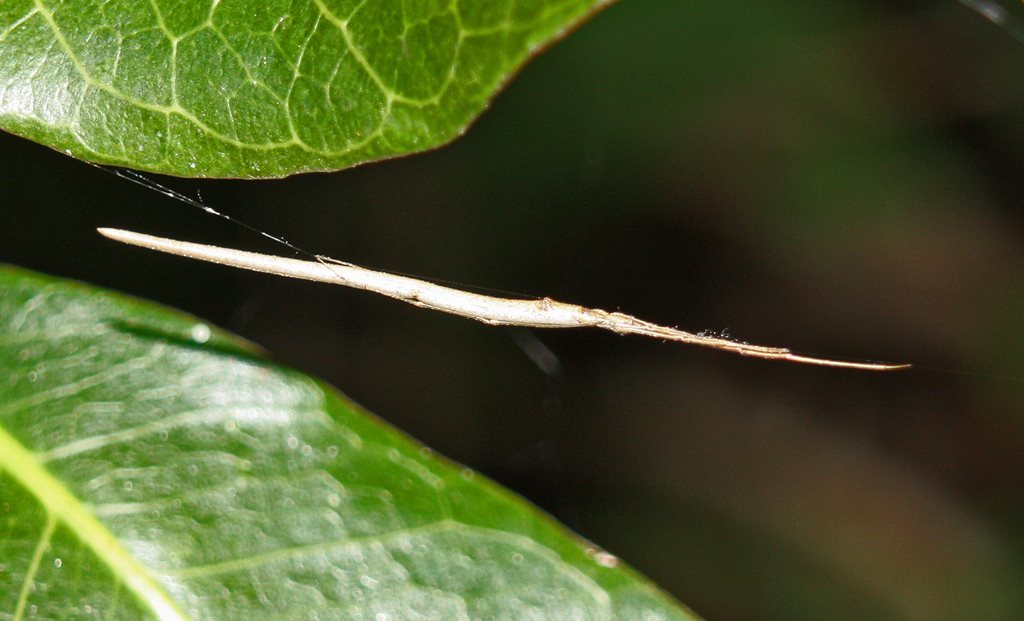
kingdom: Animalia
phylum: Arthropoda
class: Arachnida
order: Araneae
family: Theridiidae
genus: Ariamnes
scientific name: Ariamnes colubrinus
